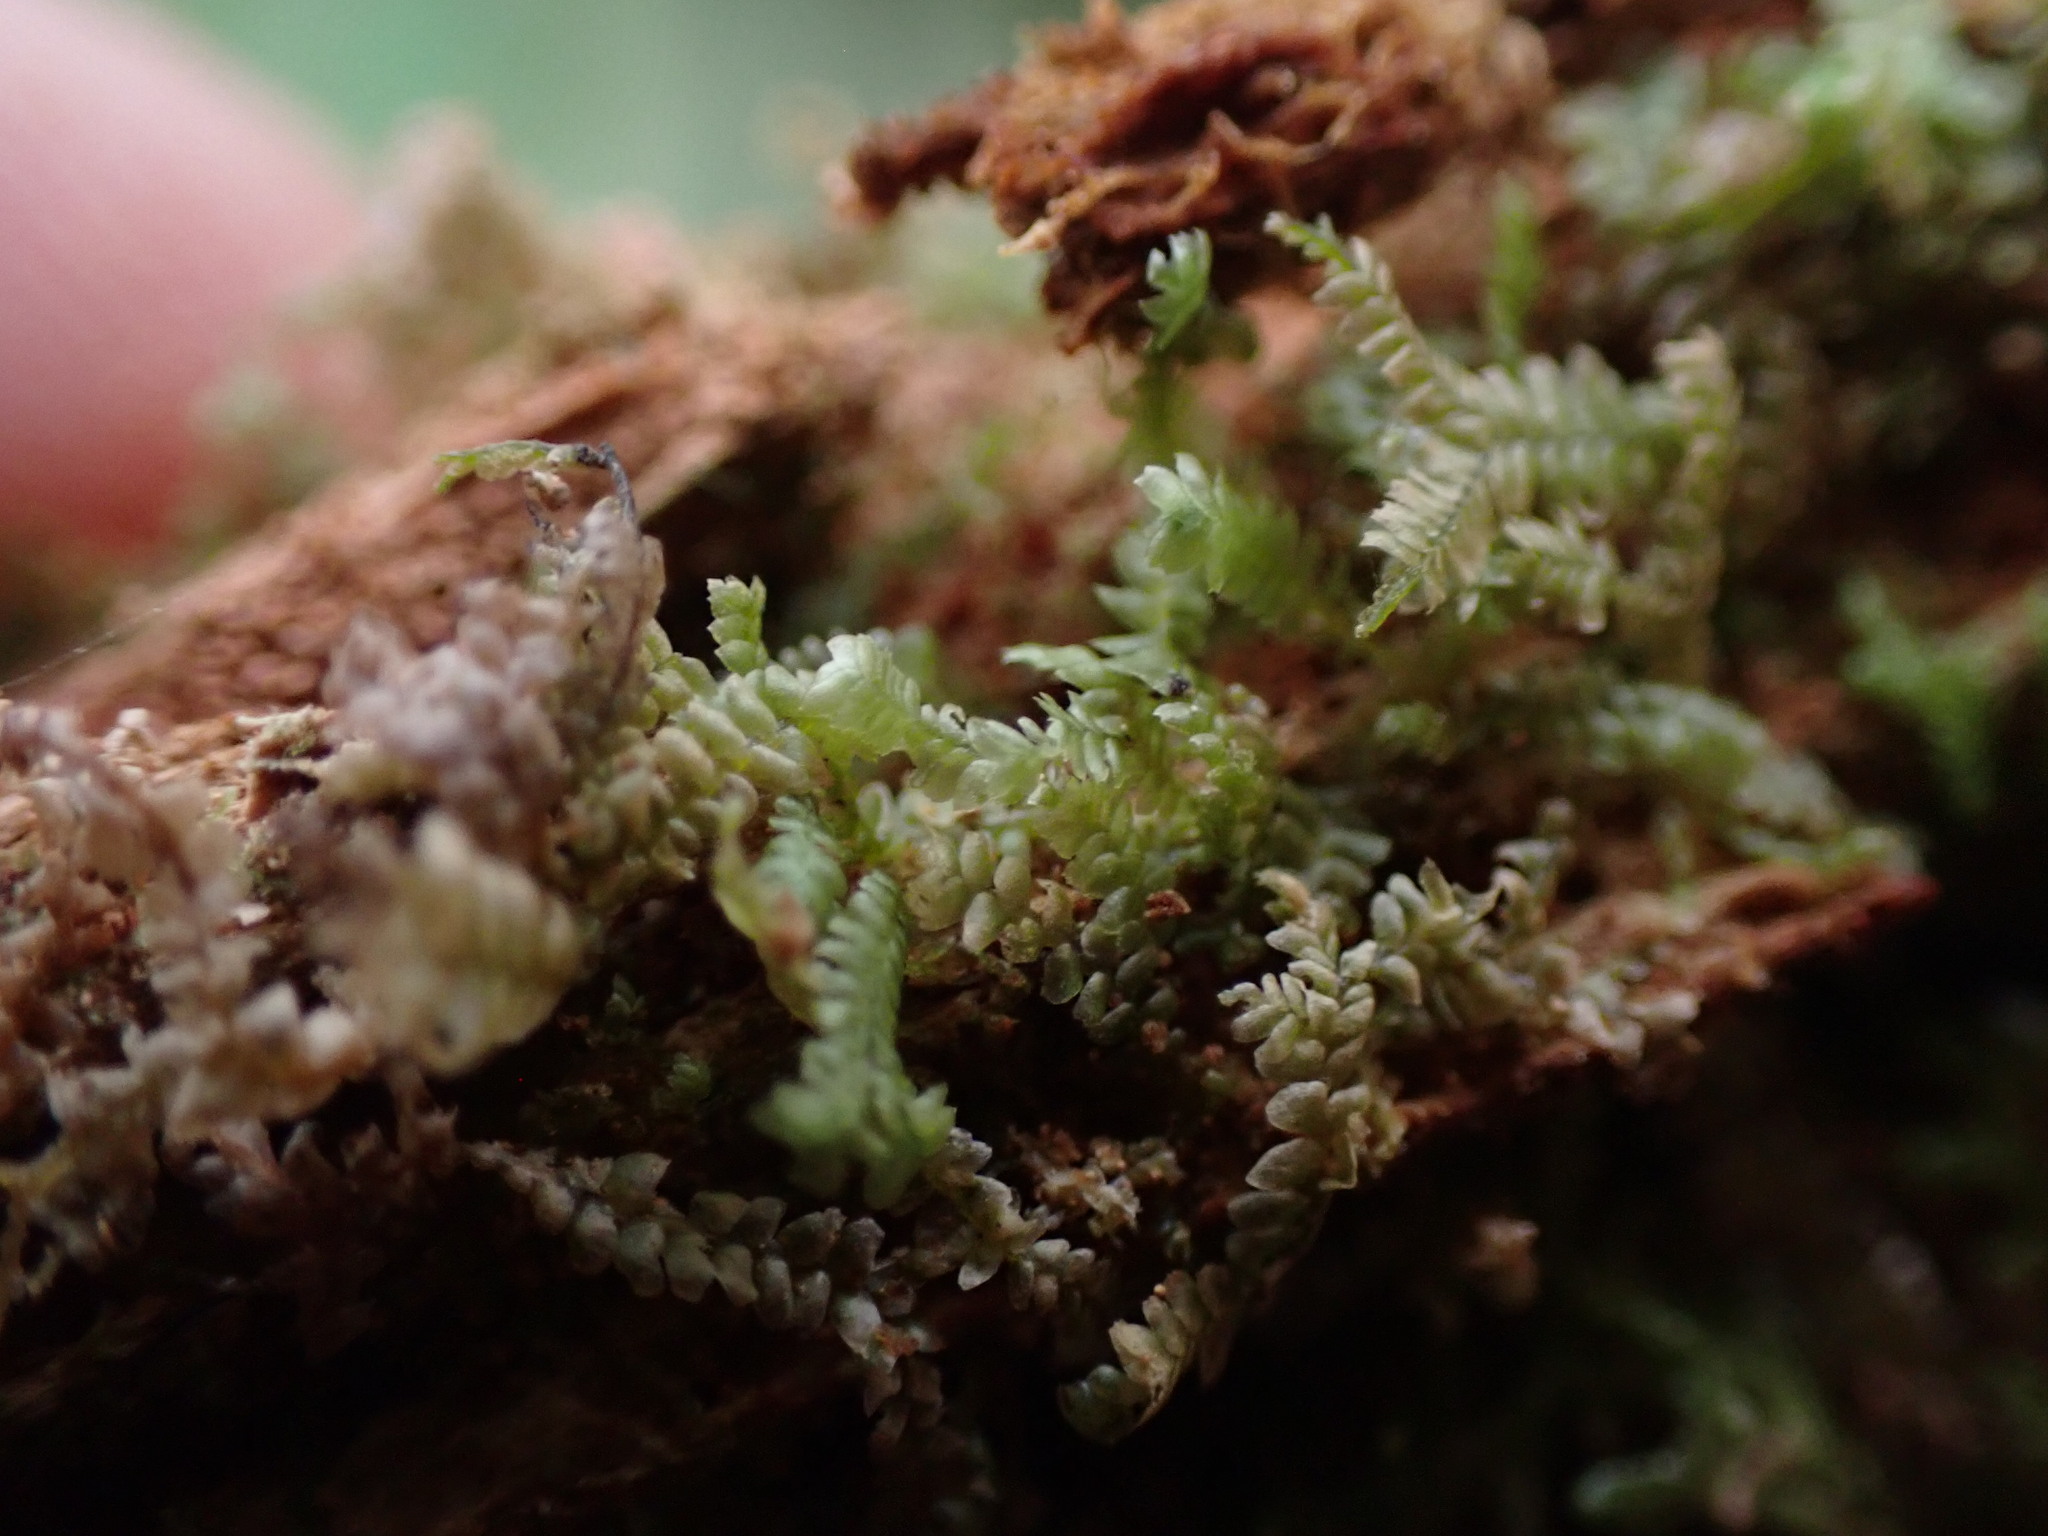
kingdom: Plantae
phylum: Marchantiophyta
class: Jungermanniopsida
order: Jungermanniales
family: Lepidoziaceae
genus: Bazzania
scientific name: Bazzania denudata
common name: Naked whipwort
